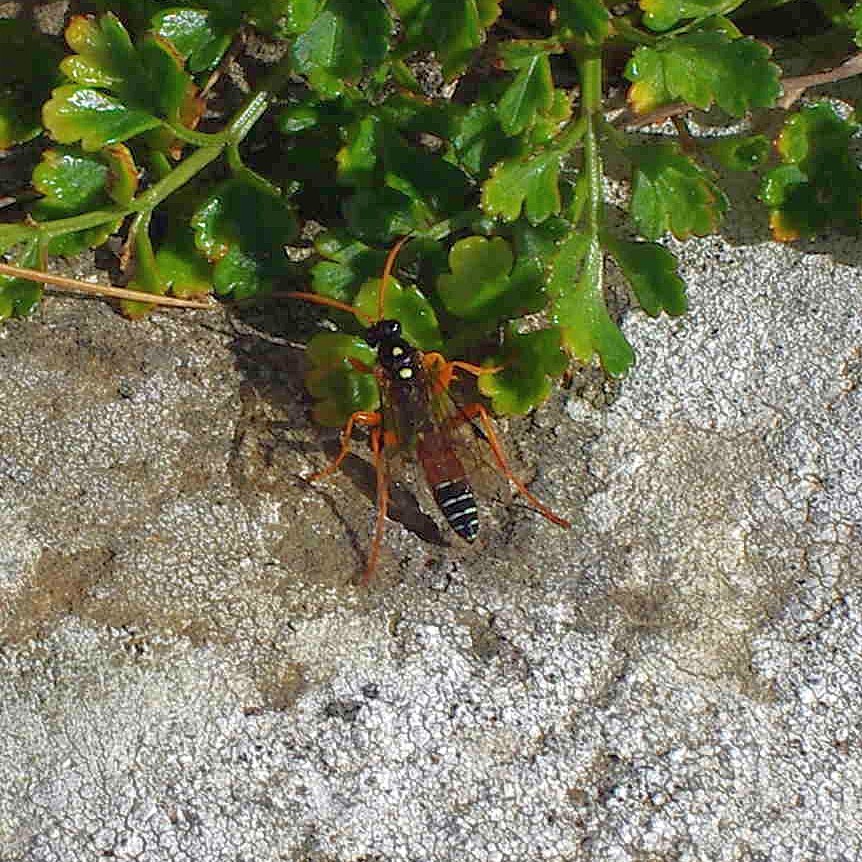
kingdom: Animalia
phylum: Arthropoda
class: Insecta
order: Hymenoptera
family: Ichneumonidae
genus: Eutanyacra
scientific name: Eutanyacra licitatoria
